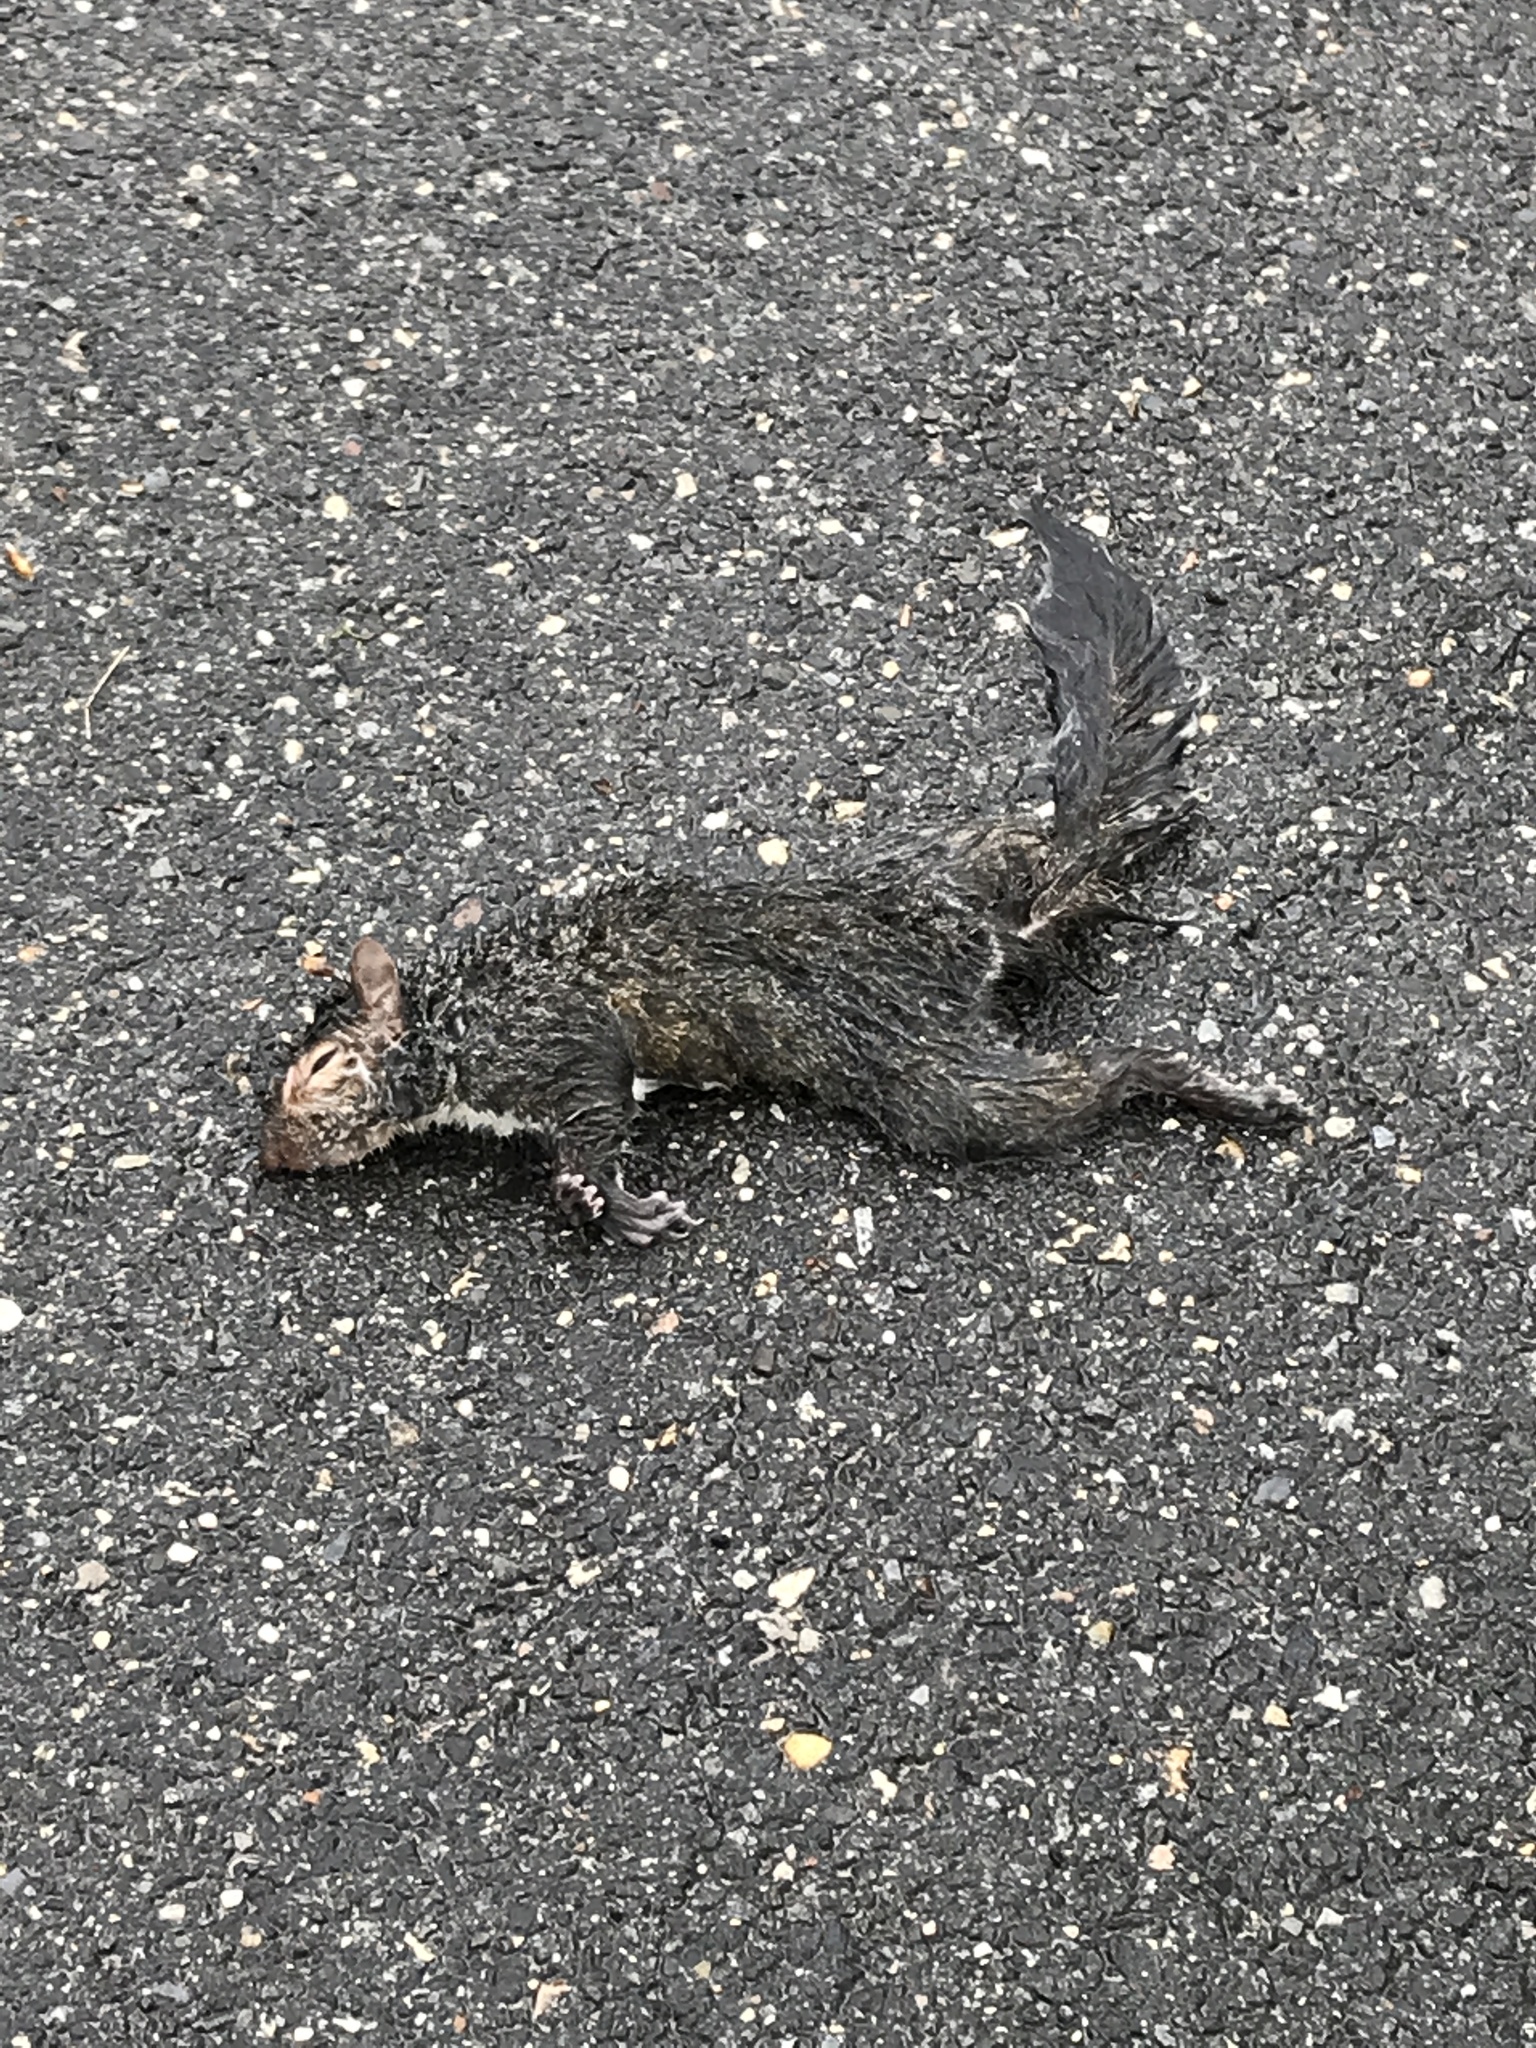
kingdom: Animalia
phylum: Chordata
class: Mammalia
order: Rodentia
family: Sciuridae
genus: Sciurus
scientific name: Sciurus carolinensis
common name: Eastern gray squirrel
